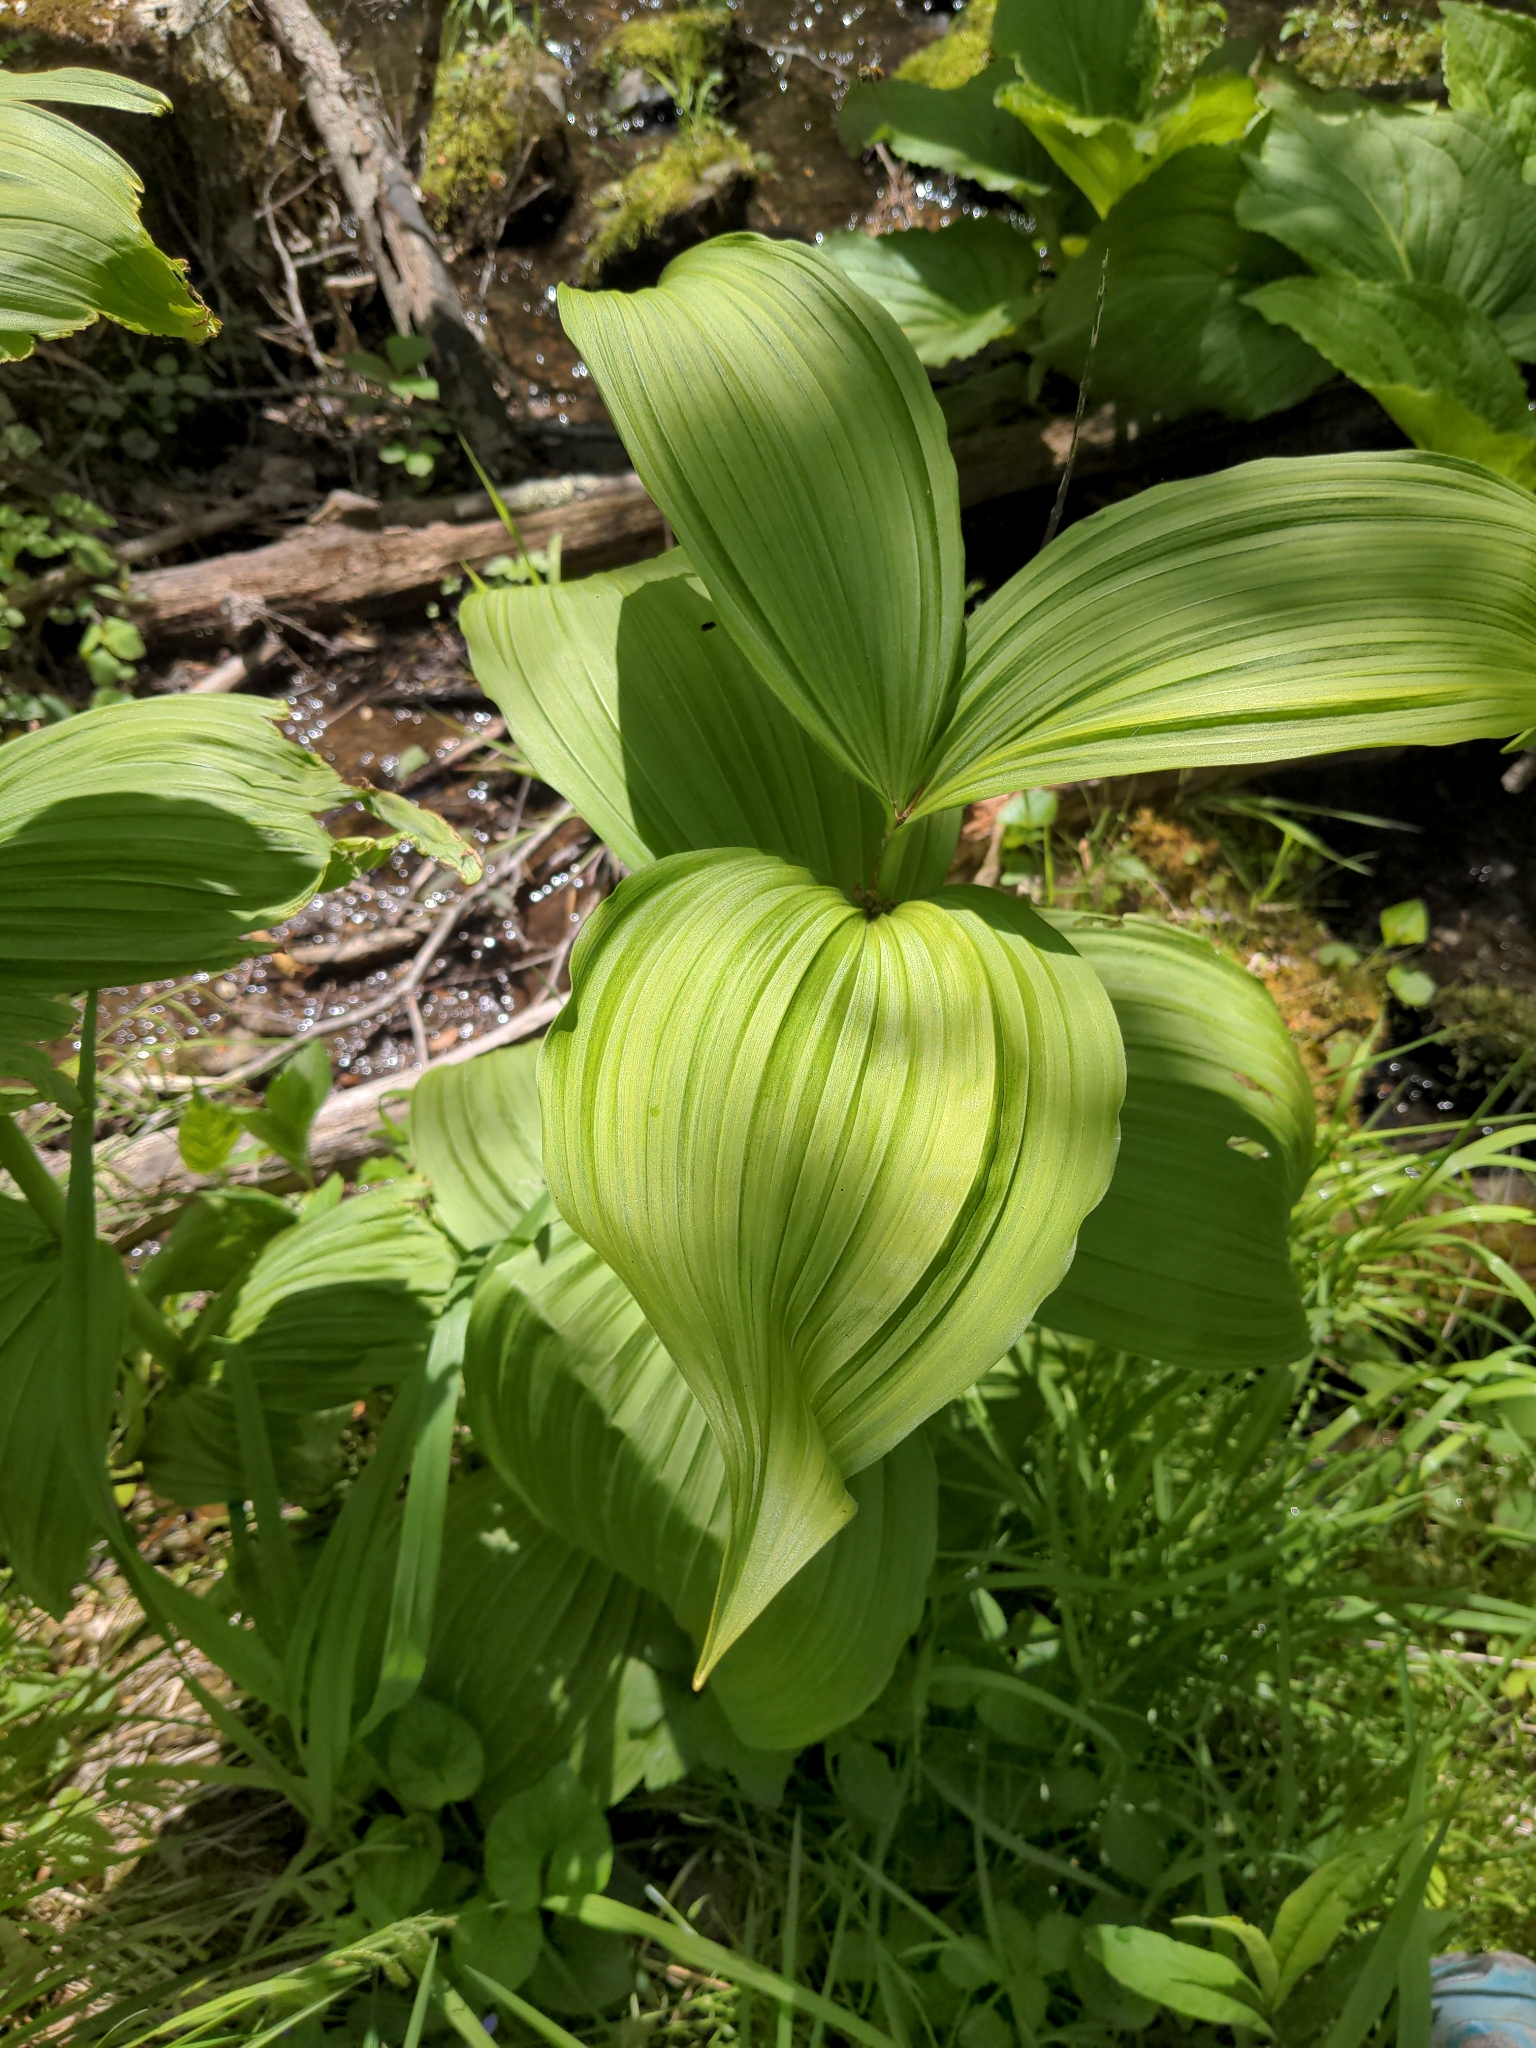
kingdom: Plantae
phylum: Tracheophyta
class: Liliopsida
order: Liliales
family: Melanthiaceae
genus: Veratrum
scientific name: Veratrum viride
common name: American false hellebore
